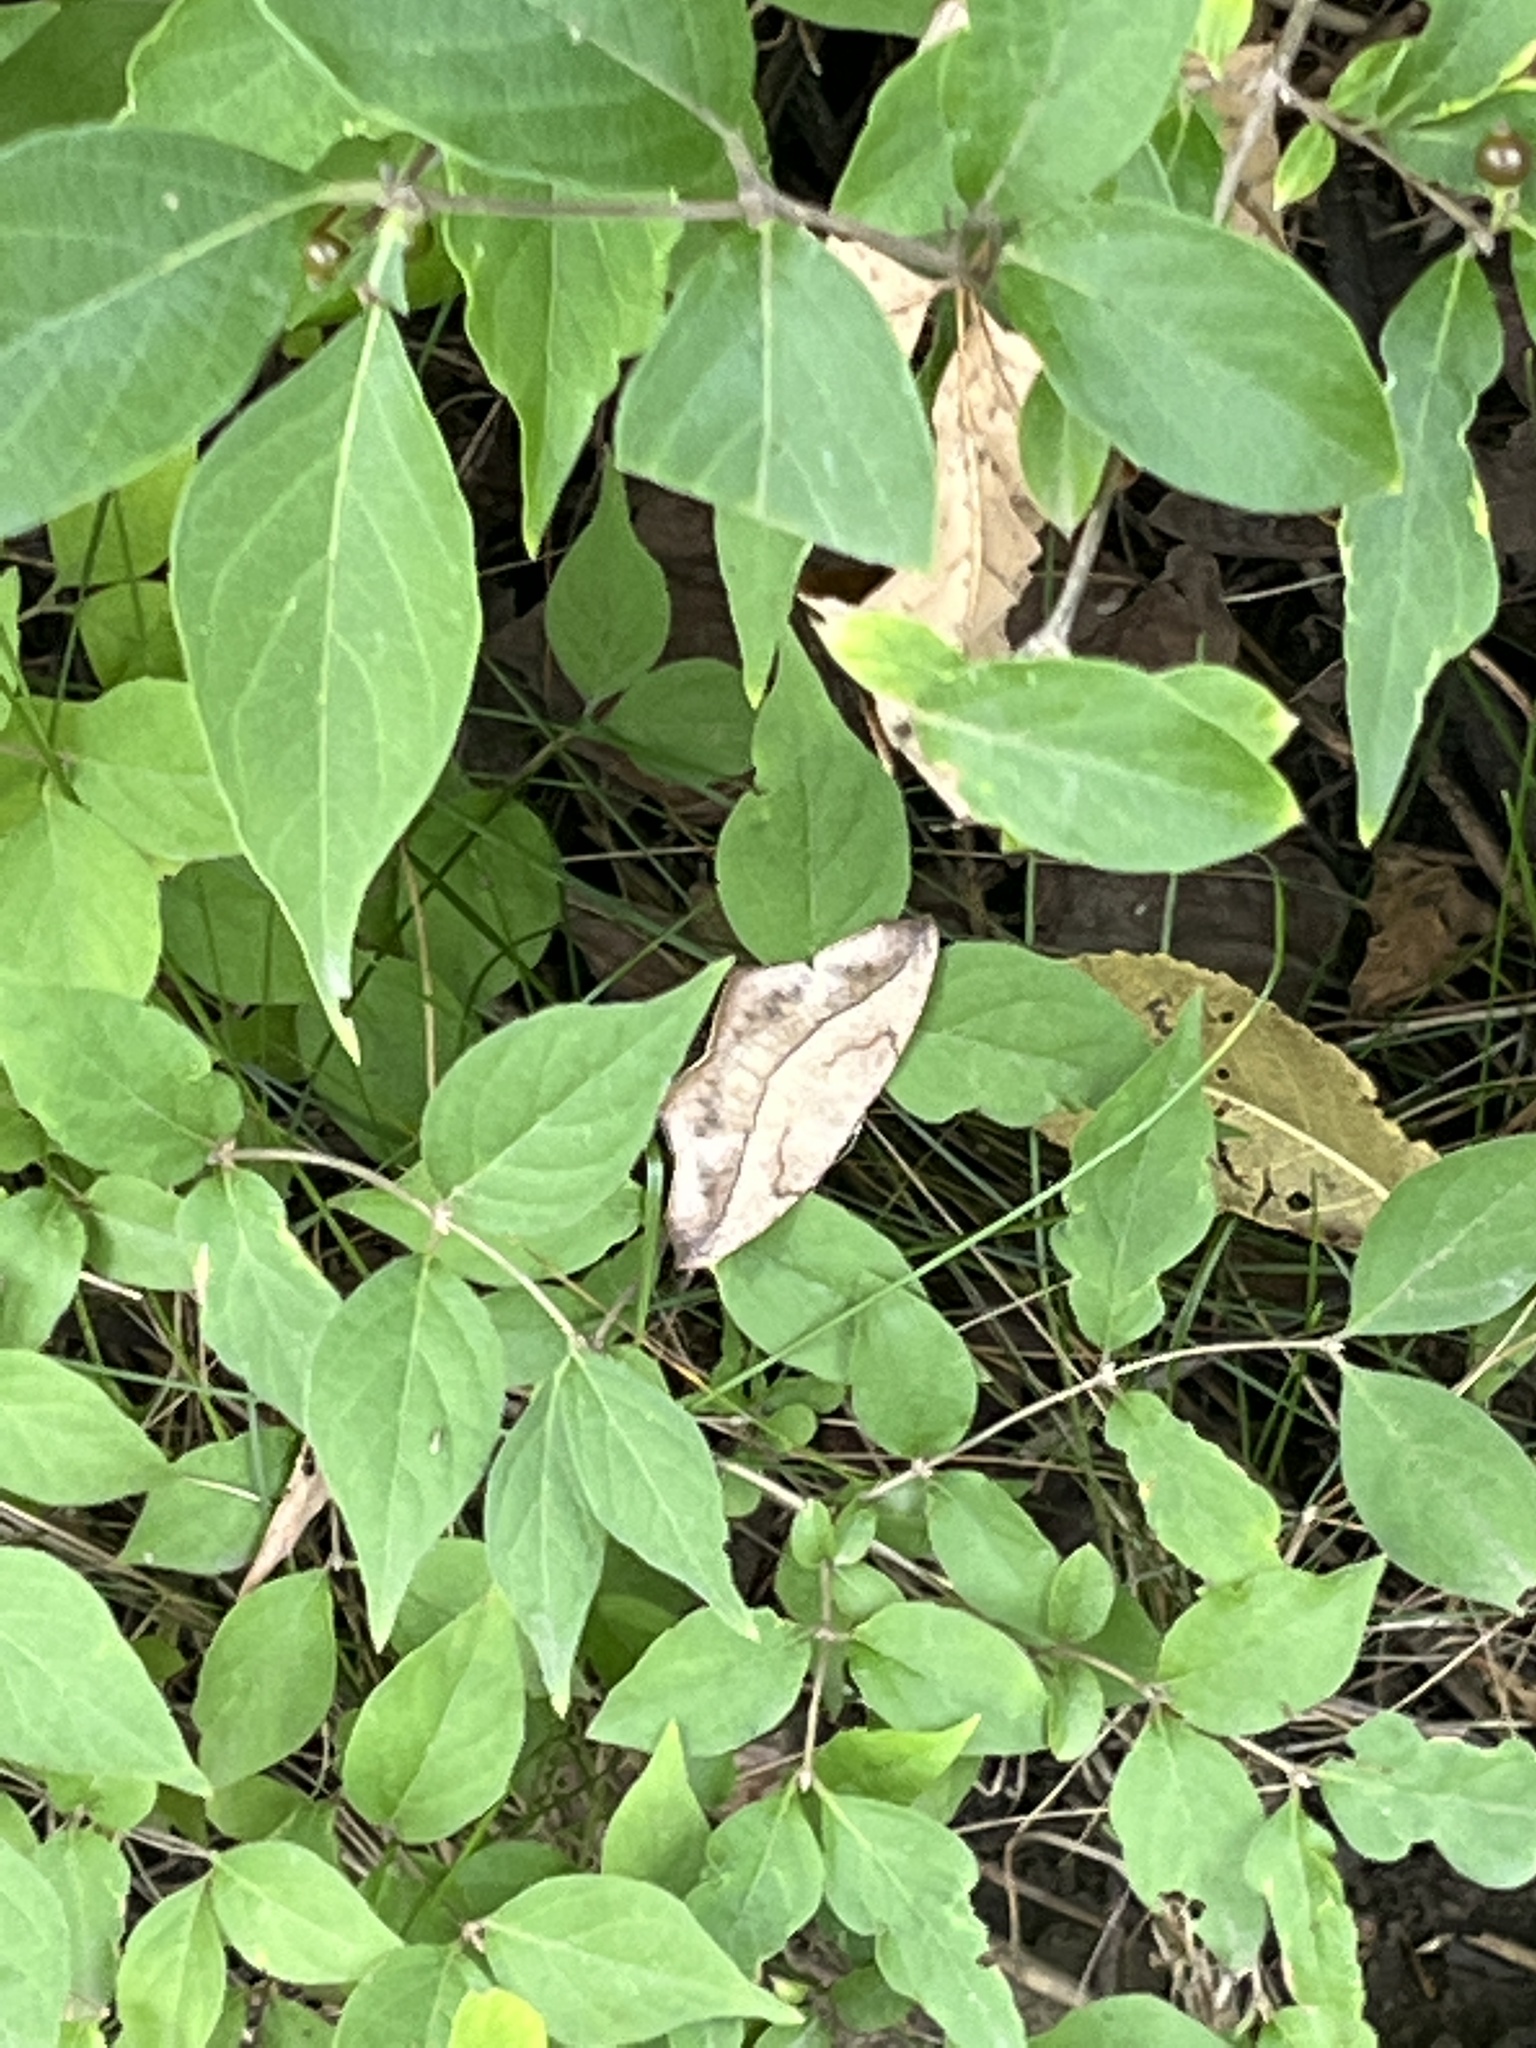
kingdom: Animalia
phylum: Arthropoda
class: Insecta
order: Lepidoptera
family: Geometridae
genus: Prochoerodes
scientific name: Prochoerodes lineola
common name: Large maple spanworm
